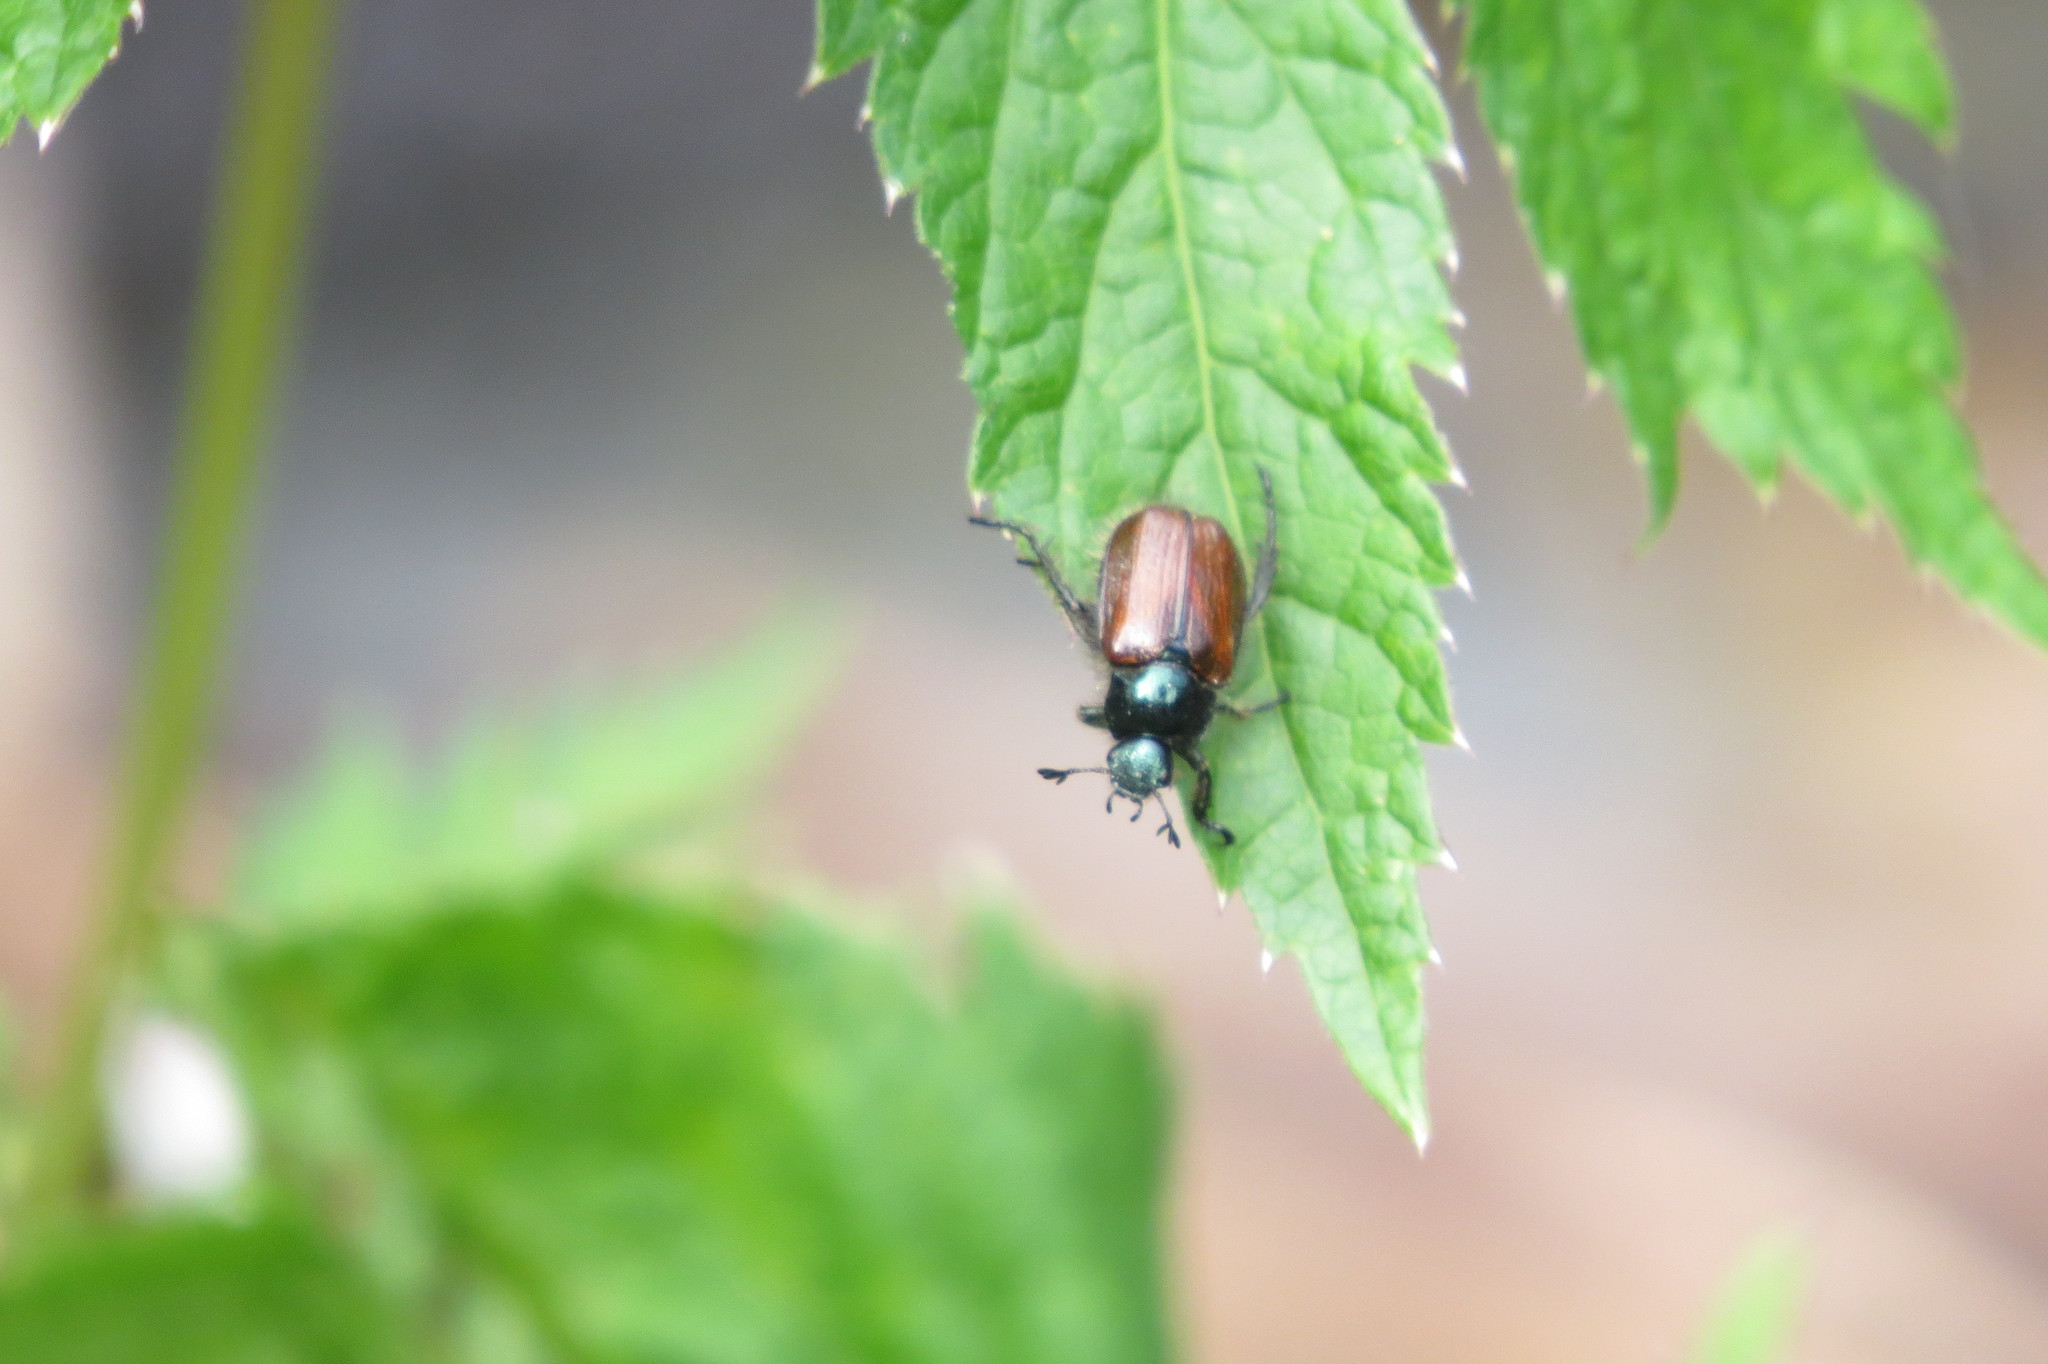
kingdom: Animalia
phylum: Arthropoda
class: Insecta
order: Coleoptera
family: Scarabaeidae
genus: Phyllopertha
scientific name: Phyllopertha horticola
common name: Garden chafer
